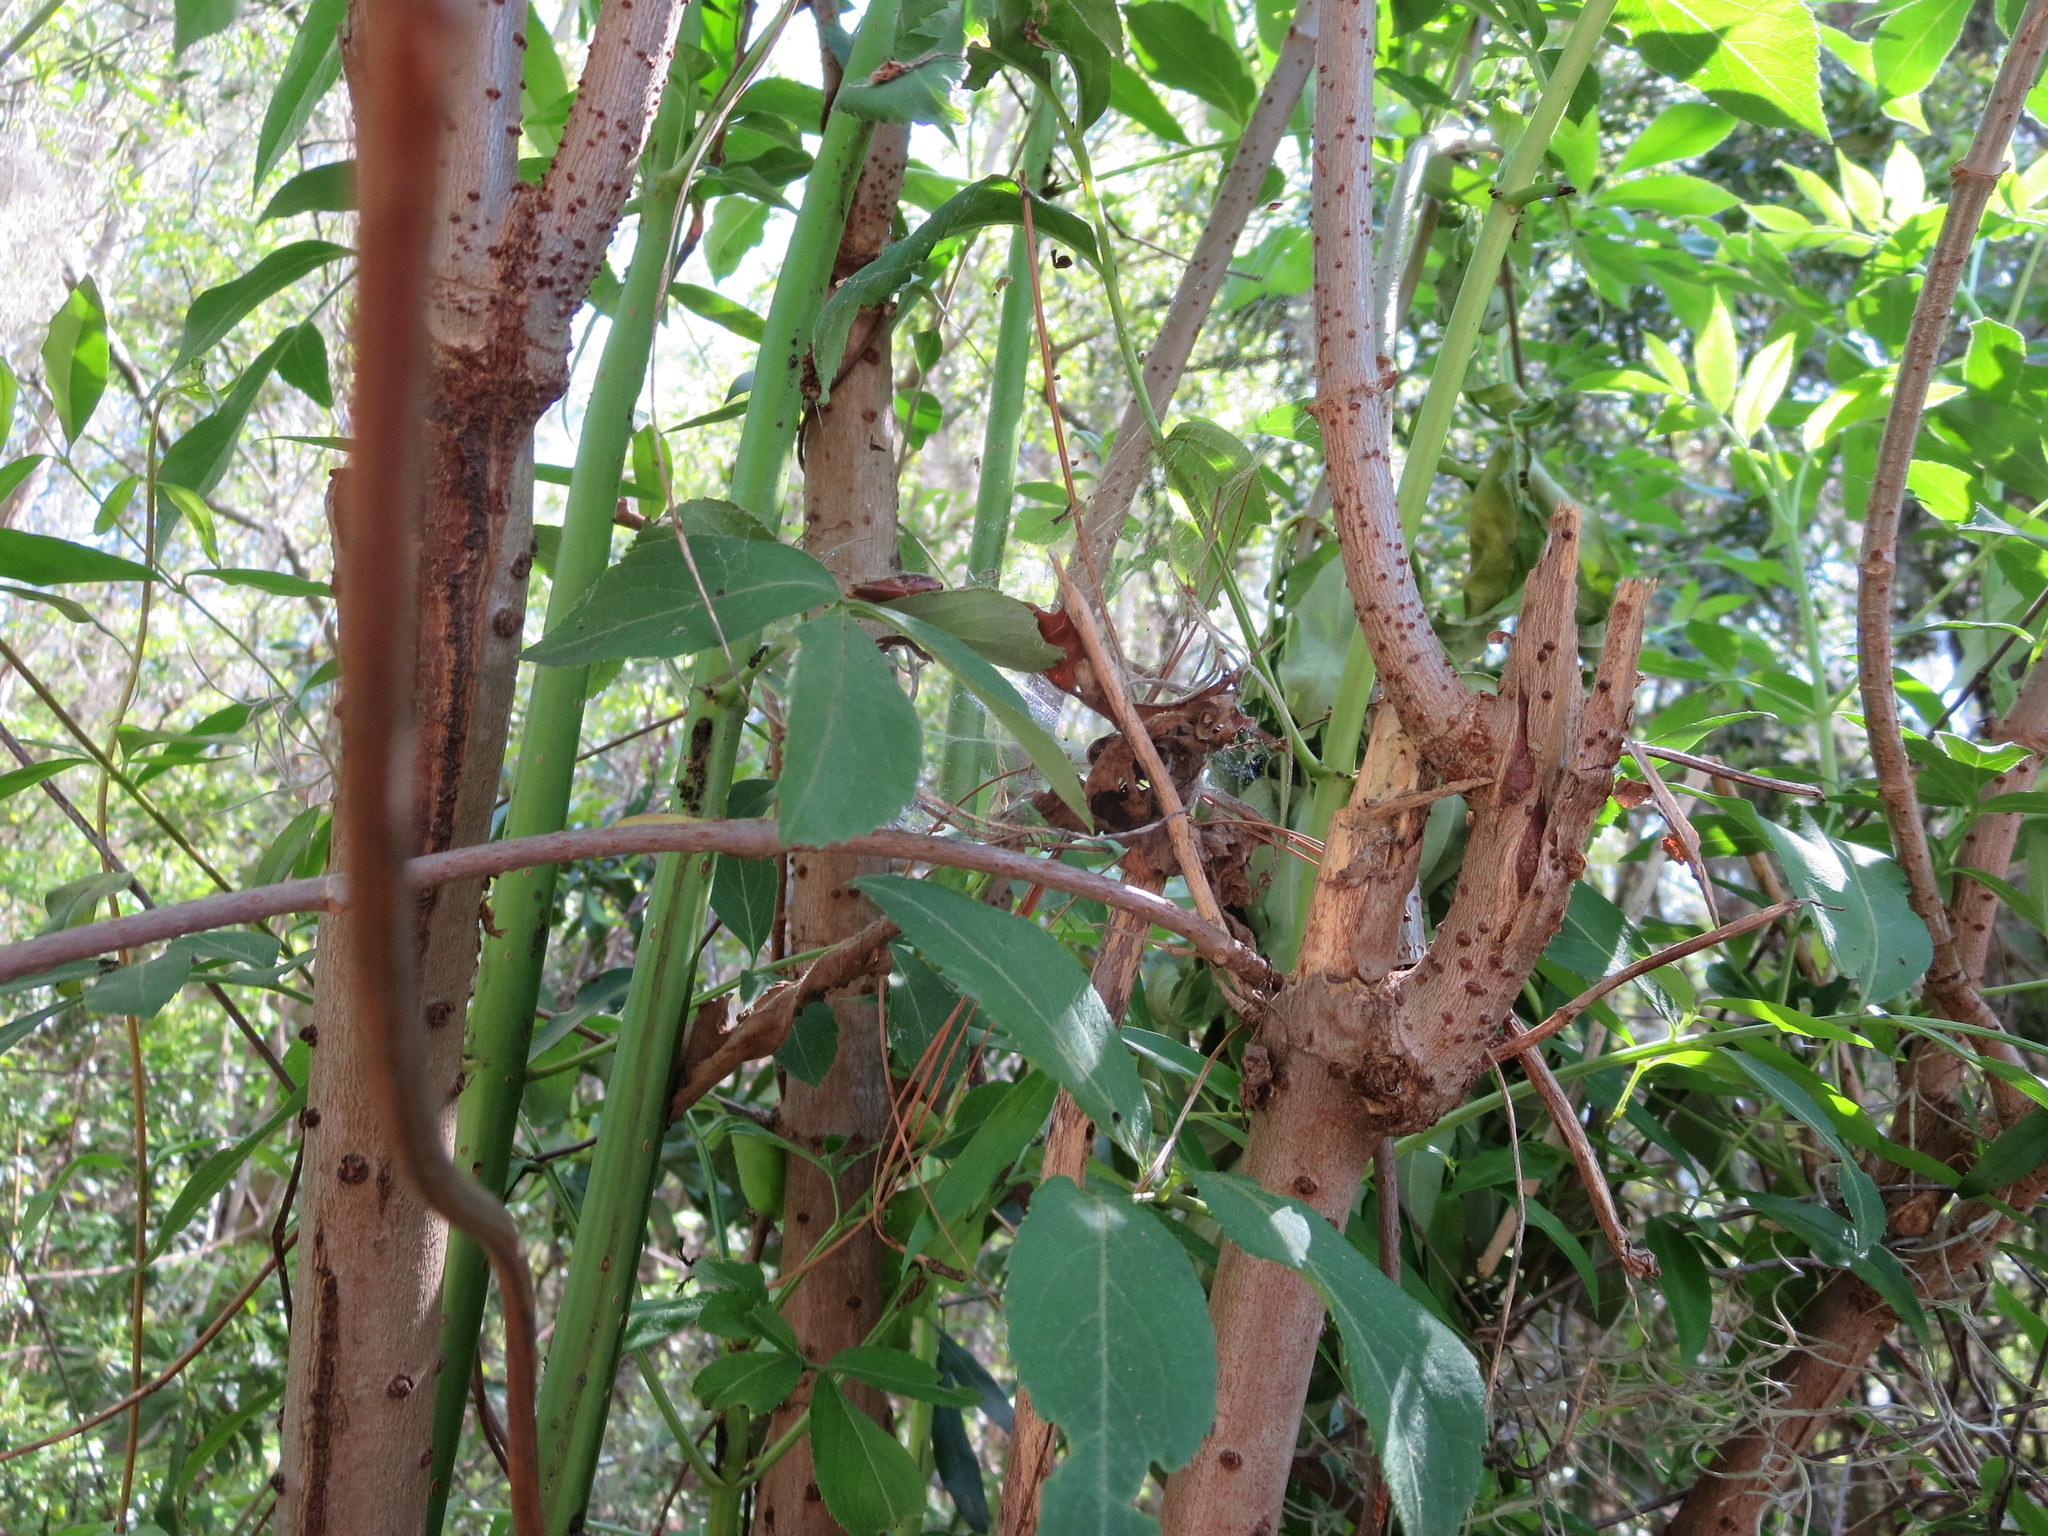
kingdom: Plantae
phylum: Tracheophyta
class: Magnoliopsida
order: Dipsacales
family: Viburnaceae
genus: Sambucus
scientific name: Sambucus canadensis
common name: American elder
